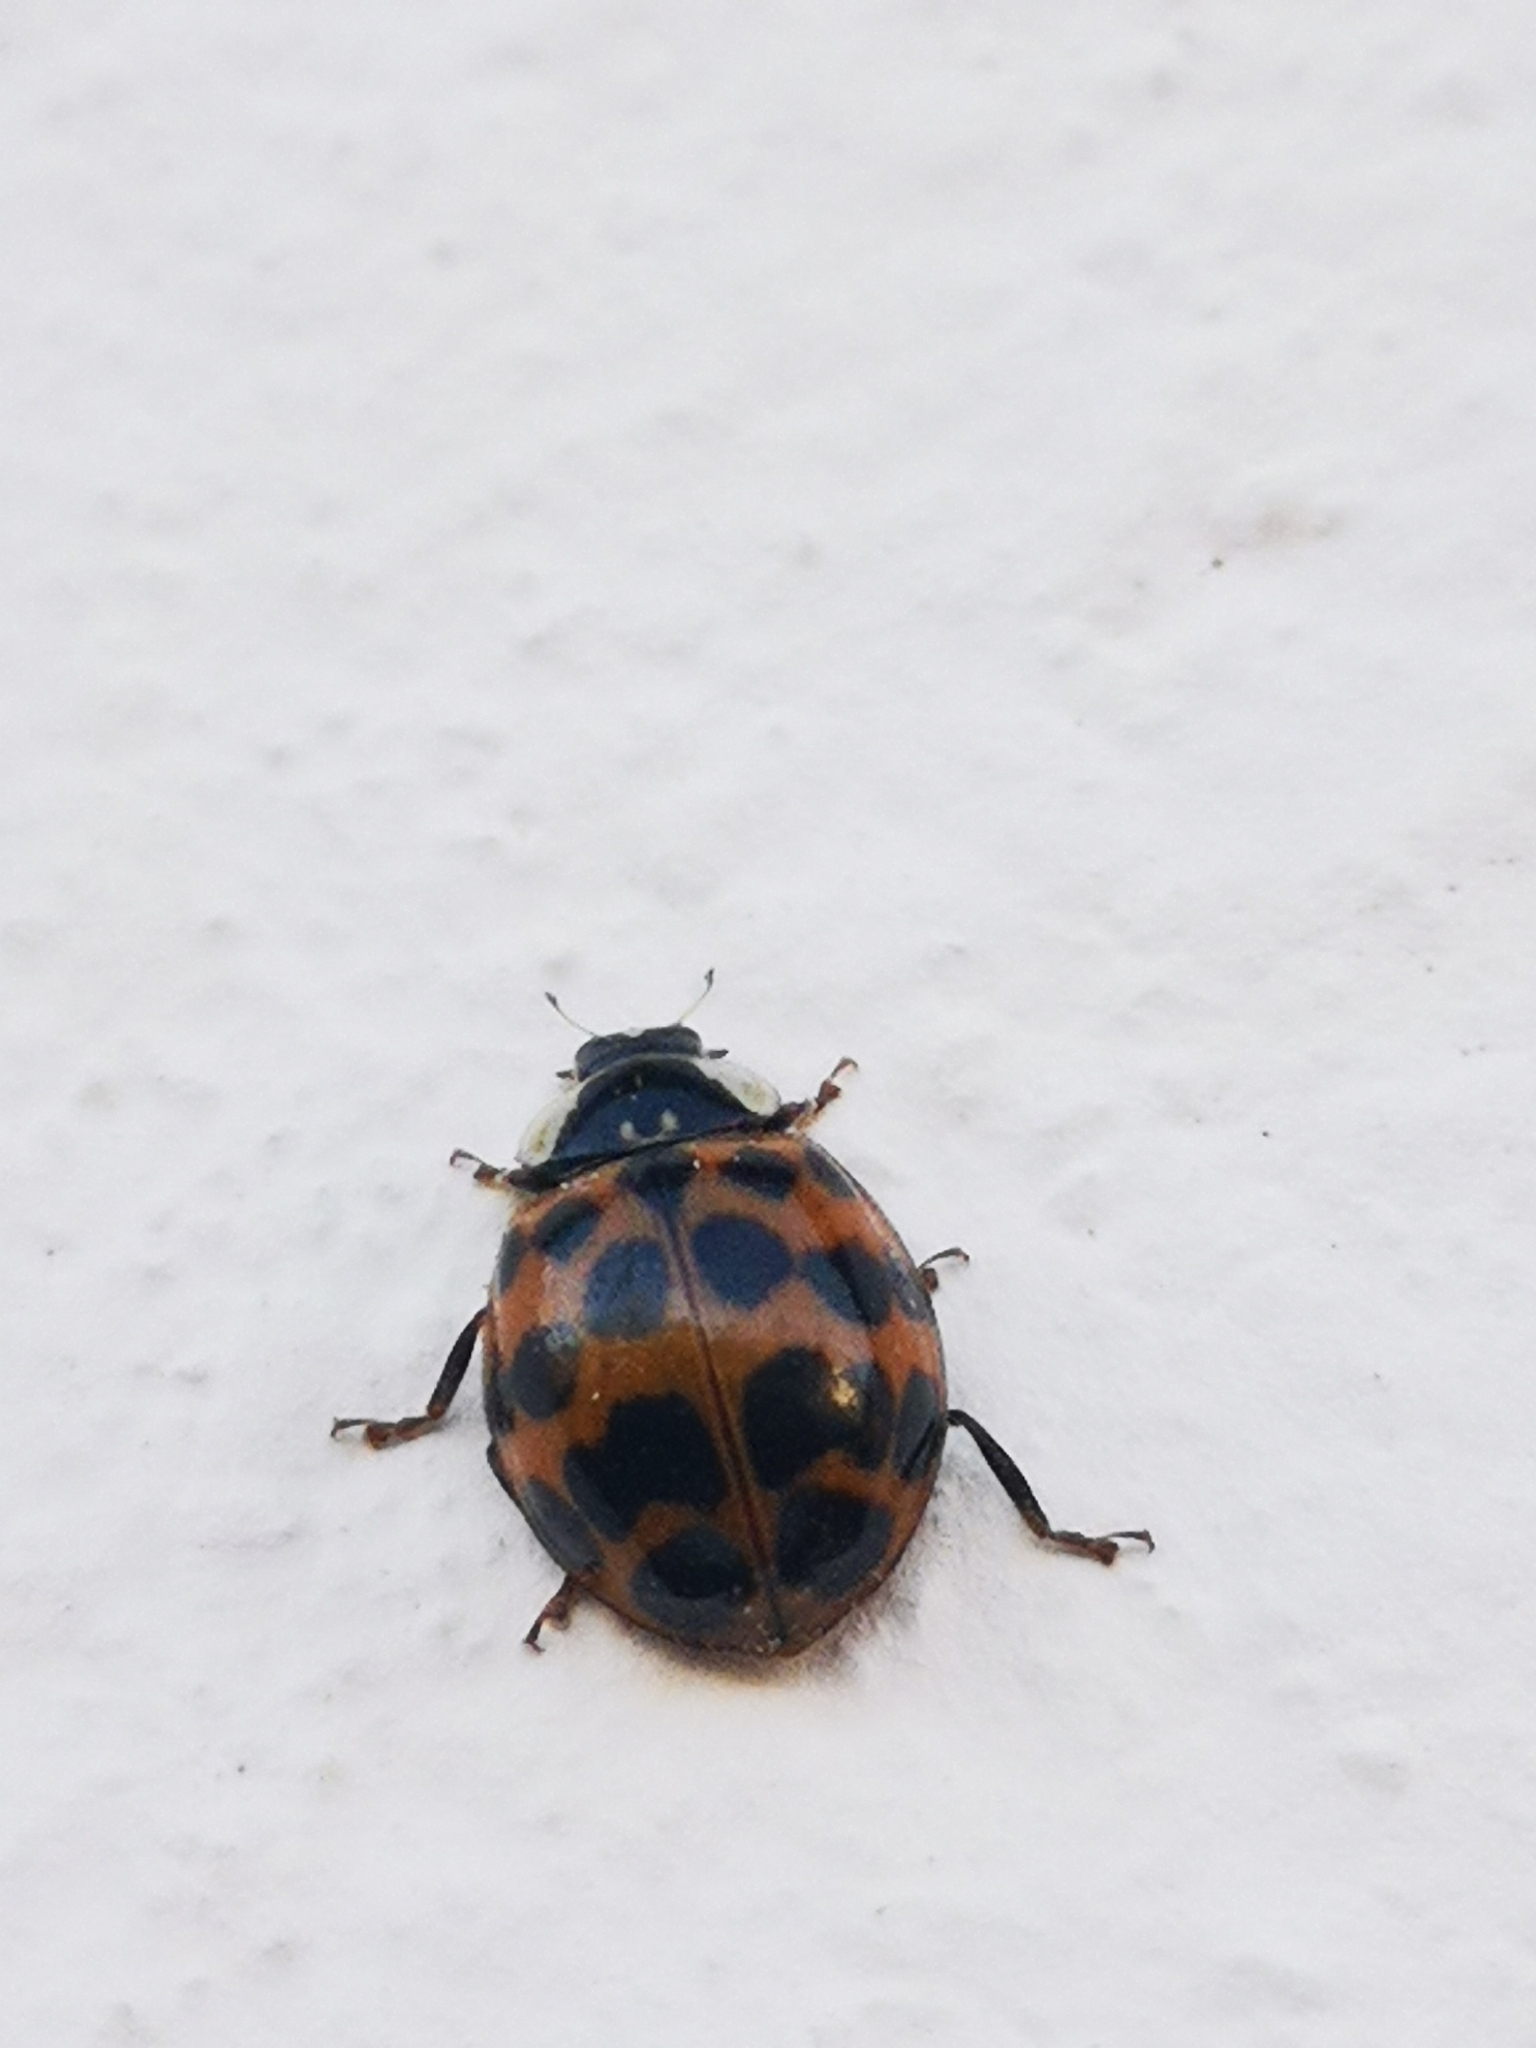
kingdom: Animalia
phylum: Arthropoda
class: Insecta
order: Coleoptera
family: Coccinellidae
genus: Harmonia
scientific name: Harmonia axyridis
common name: Harlequin ladybird
